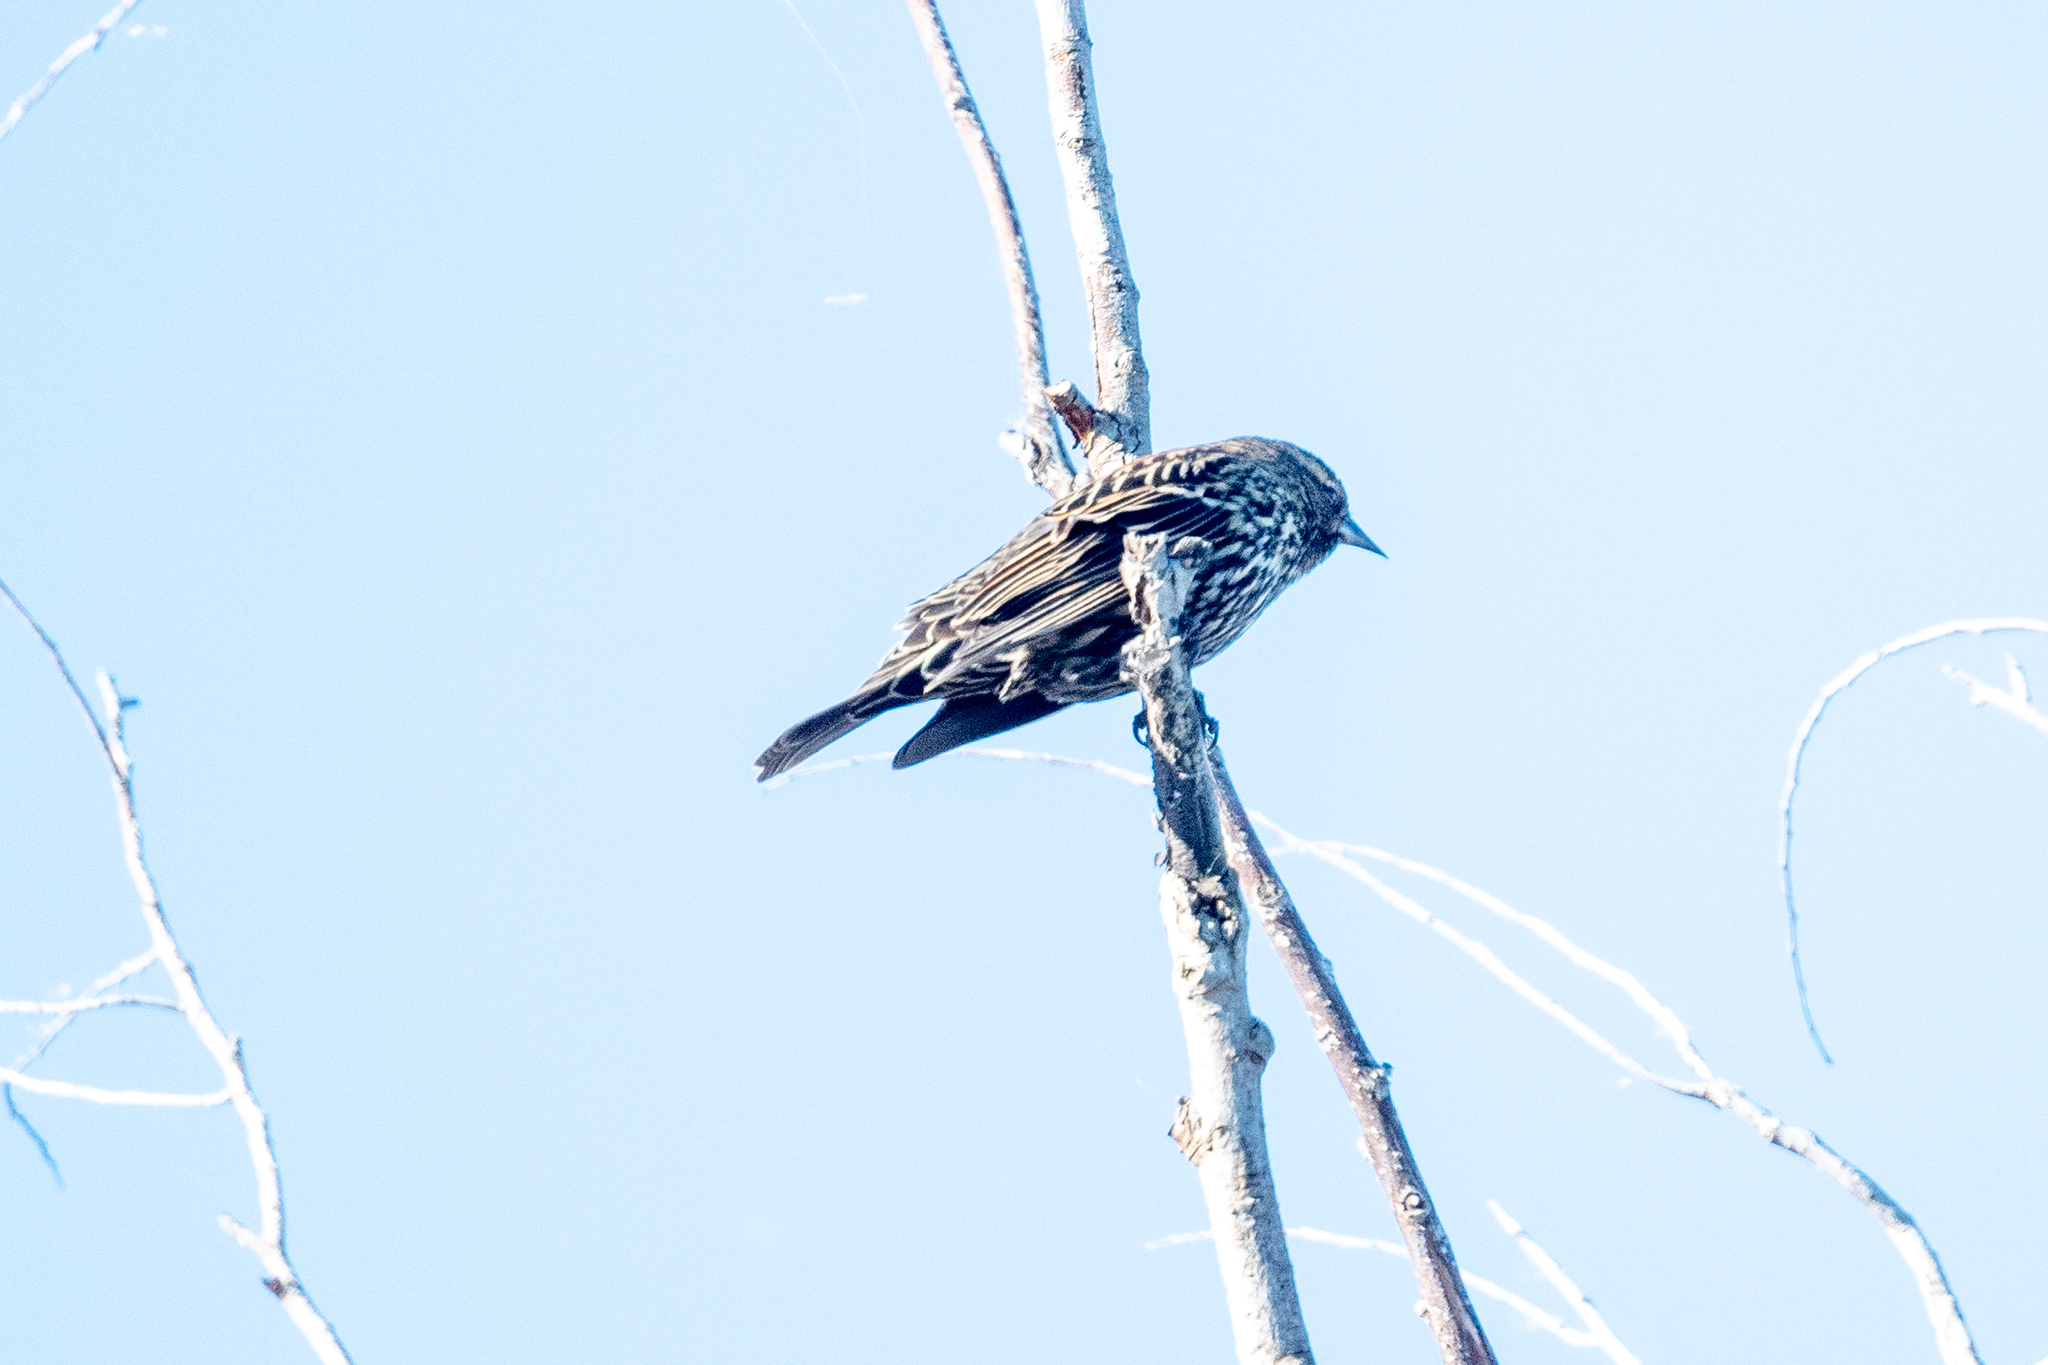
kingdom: Animalia
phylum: Chordata
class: Aves
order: Passeriformes
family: Icteridae
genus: Agelaius
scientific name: Agelaius phoeniceus
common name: Red-winged blackbird
